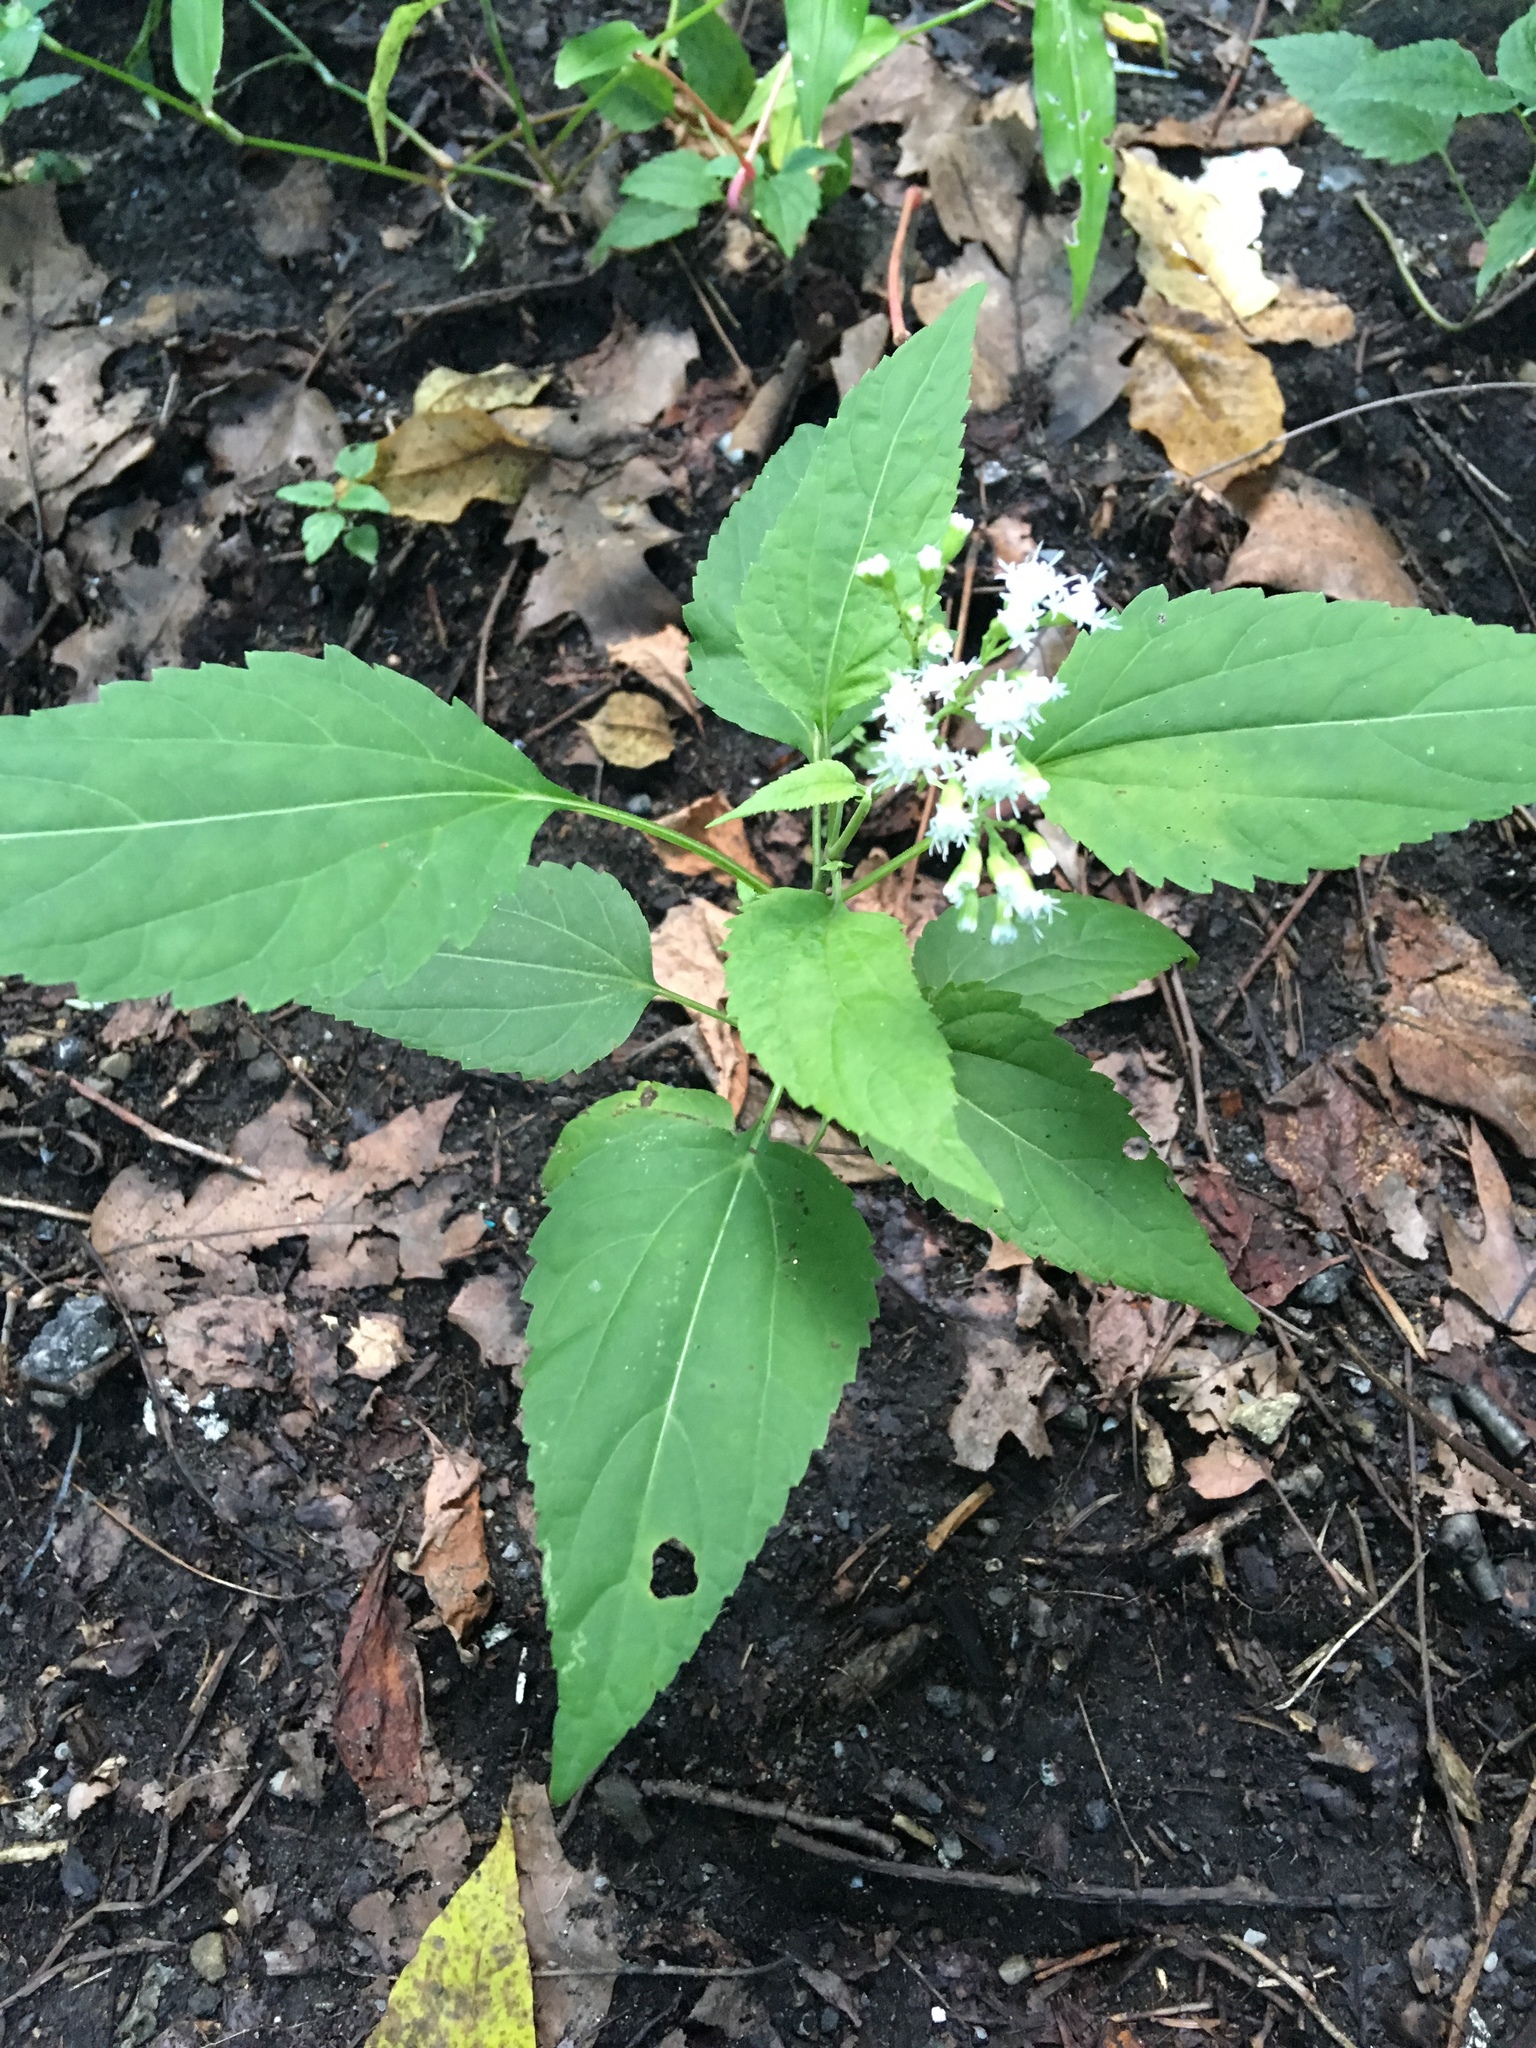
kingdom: Plantae
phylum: Tracheophyta
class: Magnoliopsida
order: Asterales
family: Asteraceae
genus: Ageratina
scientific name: Ageratina altissima
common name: White snakeroot
